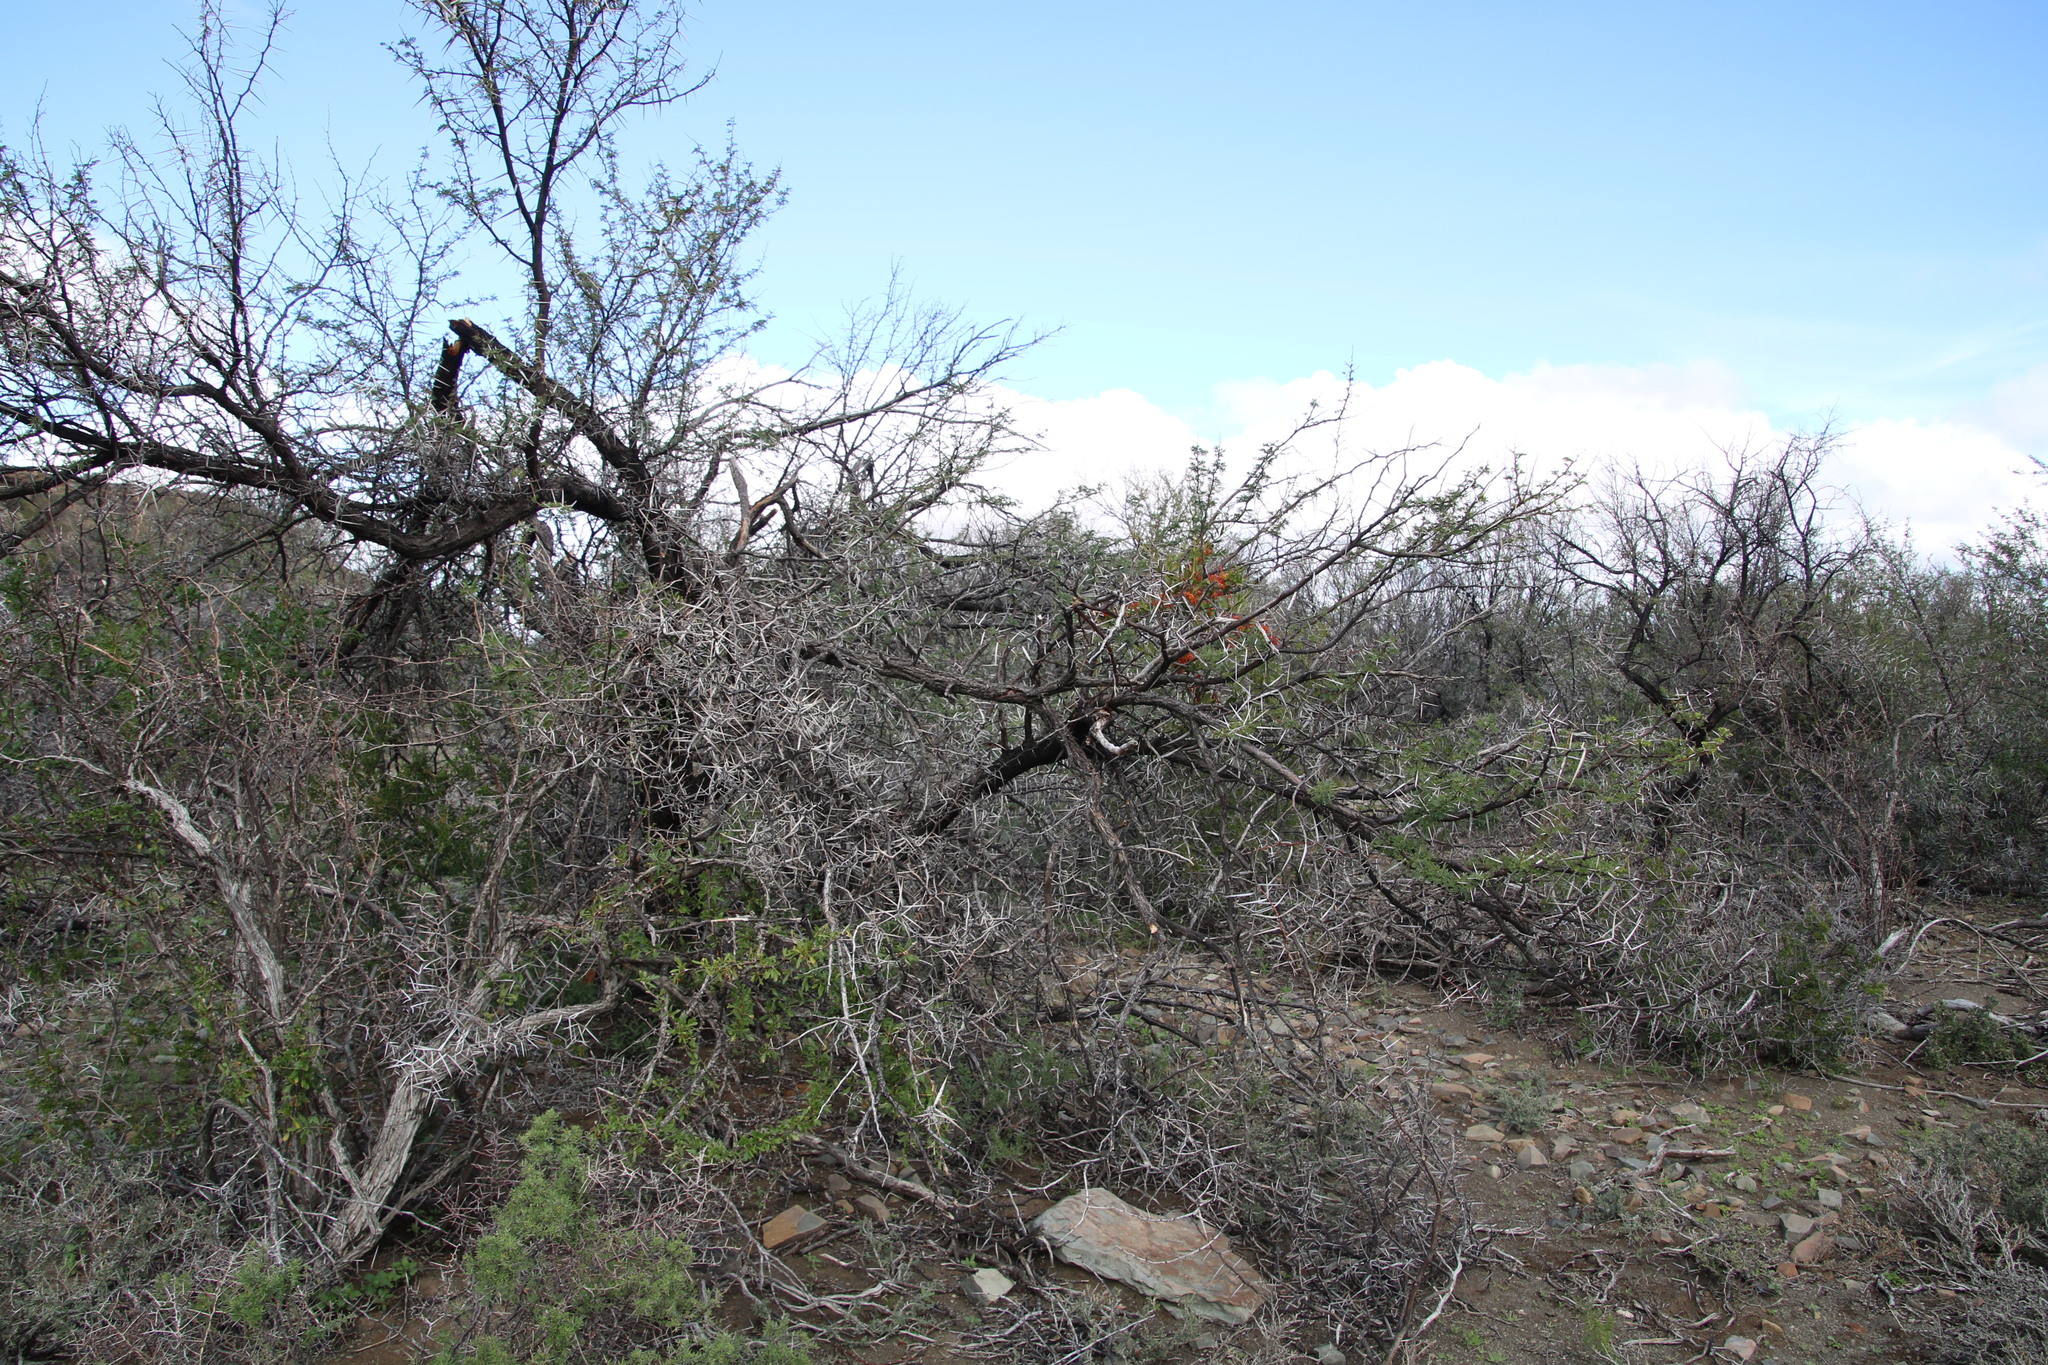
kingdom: Plantae
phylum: Tracheophyta
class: Magnoliopsida
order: Fabales
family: Fabaceae
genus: Vachellia
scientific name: Vachellia karroo
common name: Sweet thorn
